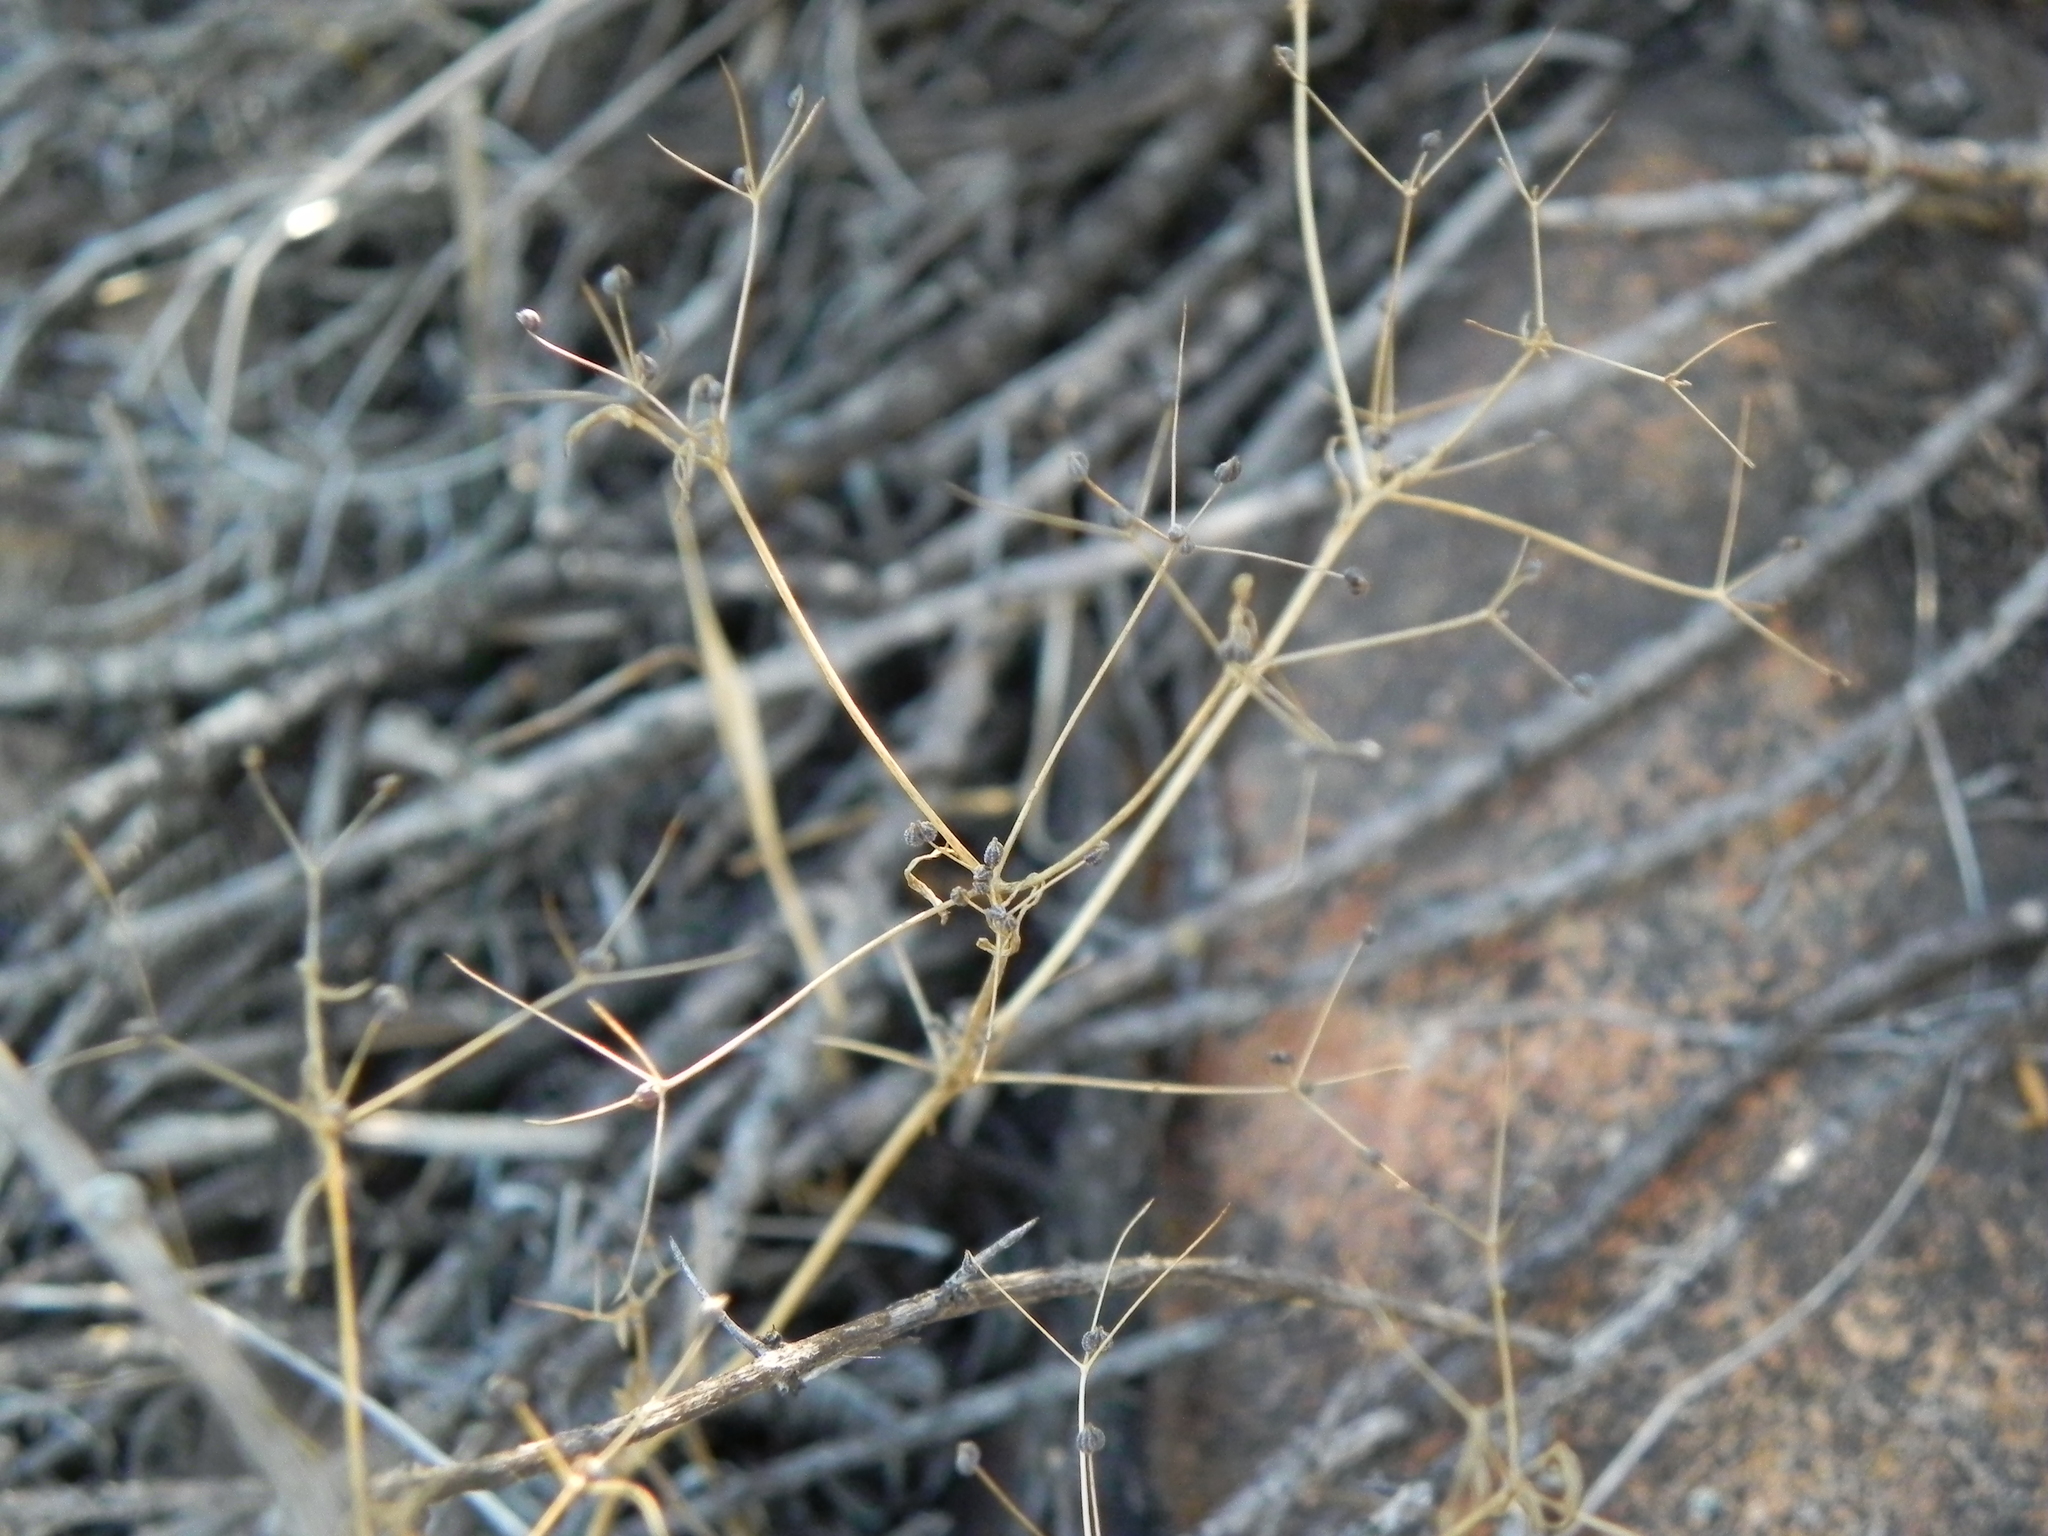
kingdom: Plantae
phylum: Tracheophyta
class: Magnoliopsida
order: Apiales
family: Apiaceae
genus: Apiastrum
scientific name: Apiastrum angustifolium
